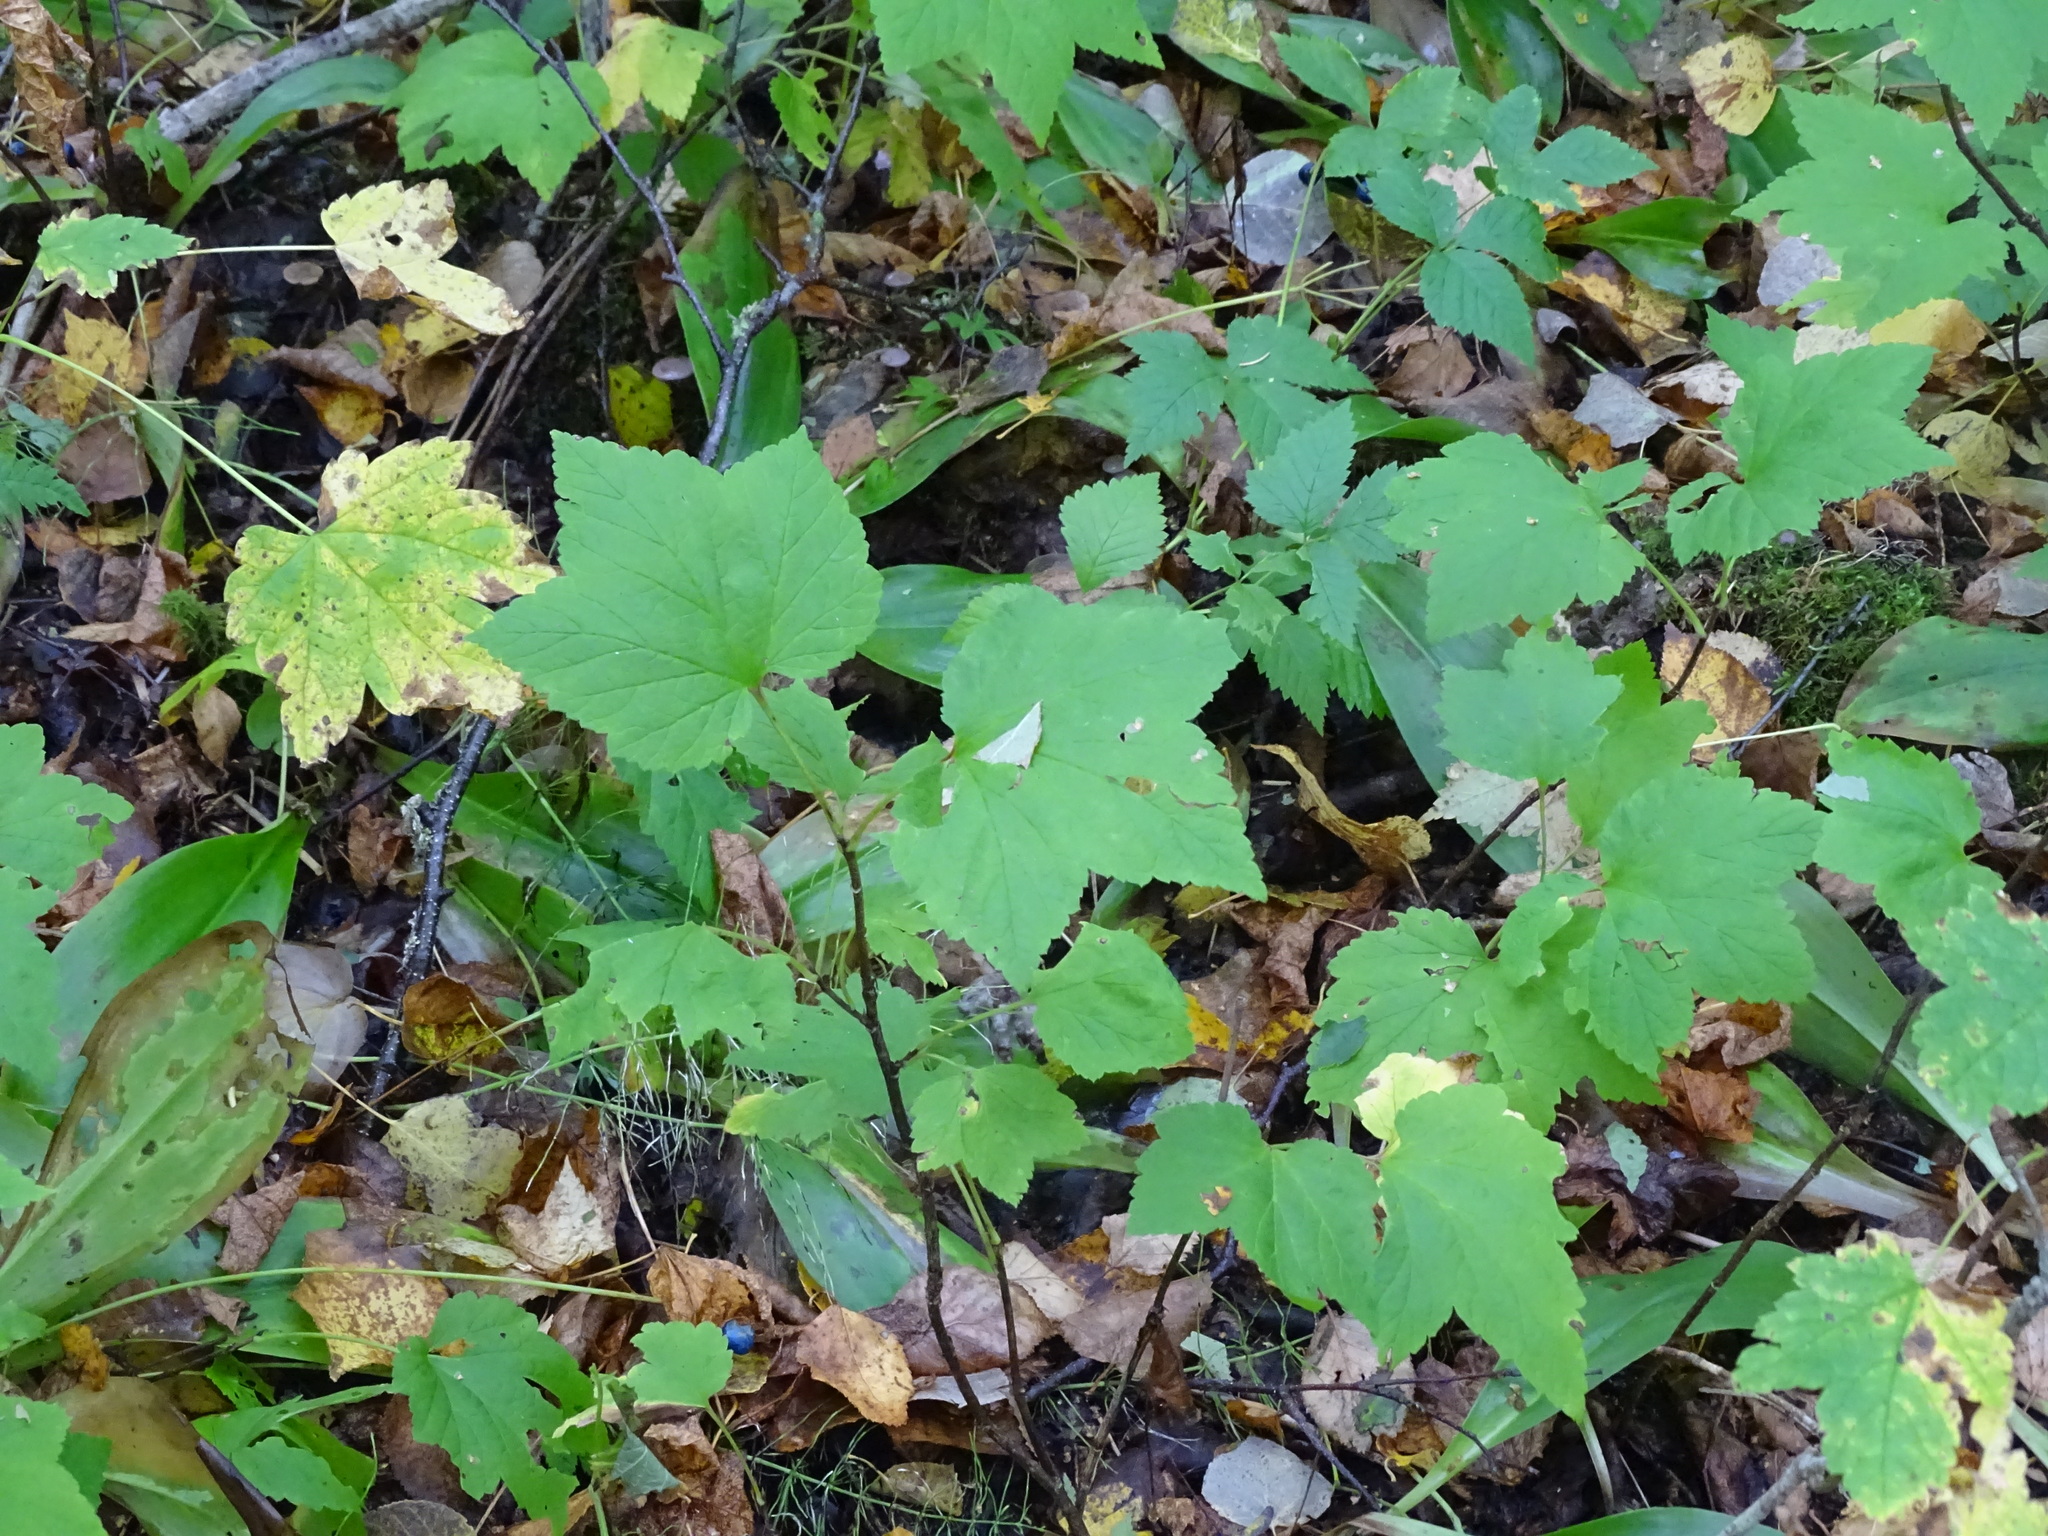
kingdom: Plantae
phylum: Tracheophyta
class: Magnoliopsida
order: Rosales
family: Rosaceae
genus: Rubus
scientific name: Rubus parviflorus
